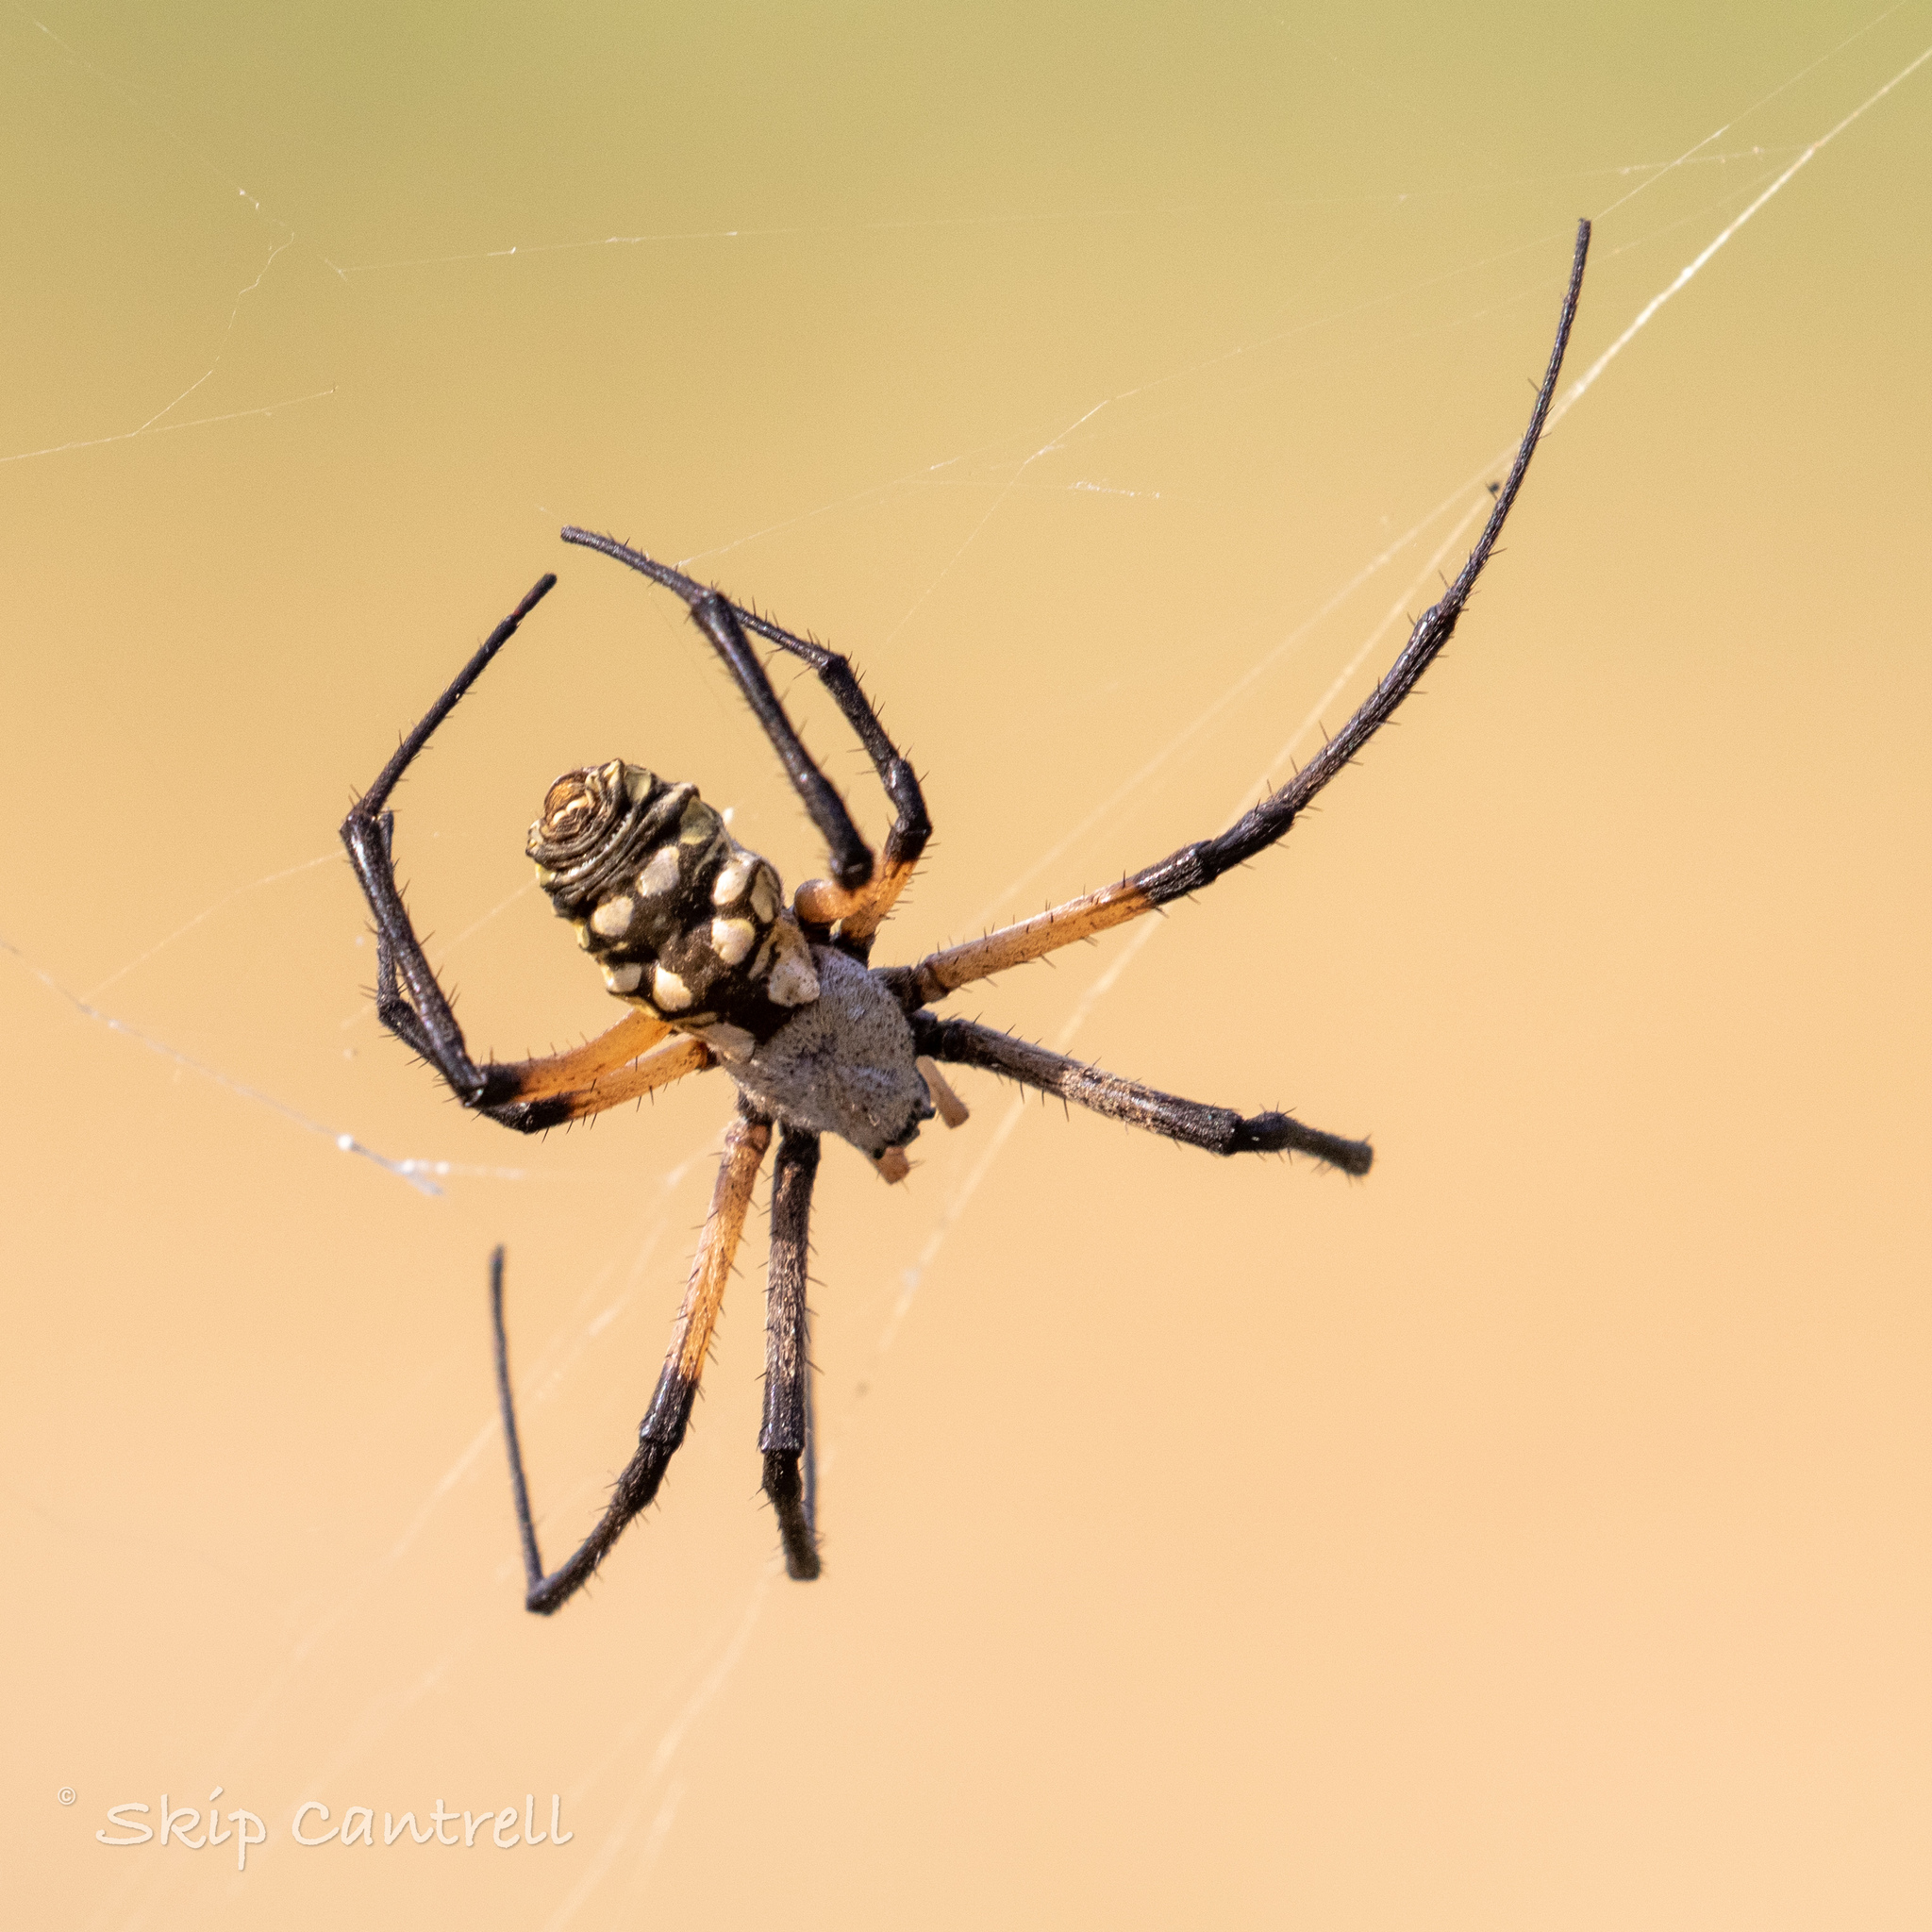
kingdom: Animalia
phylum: Arthropoda
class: Arachnida
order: Araneae
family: Araneidae
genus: Argiope
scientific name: Argiope aurantia
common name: Orb weavers
